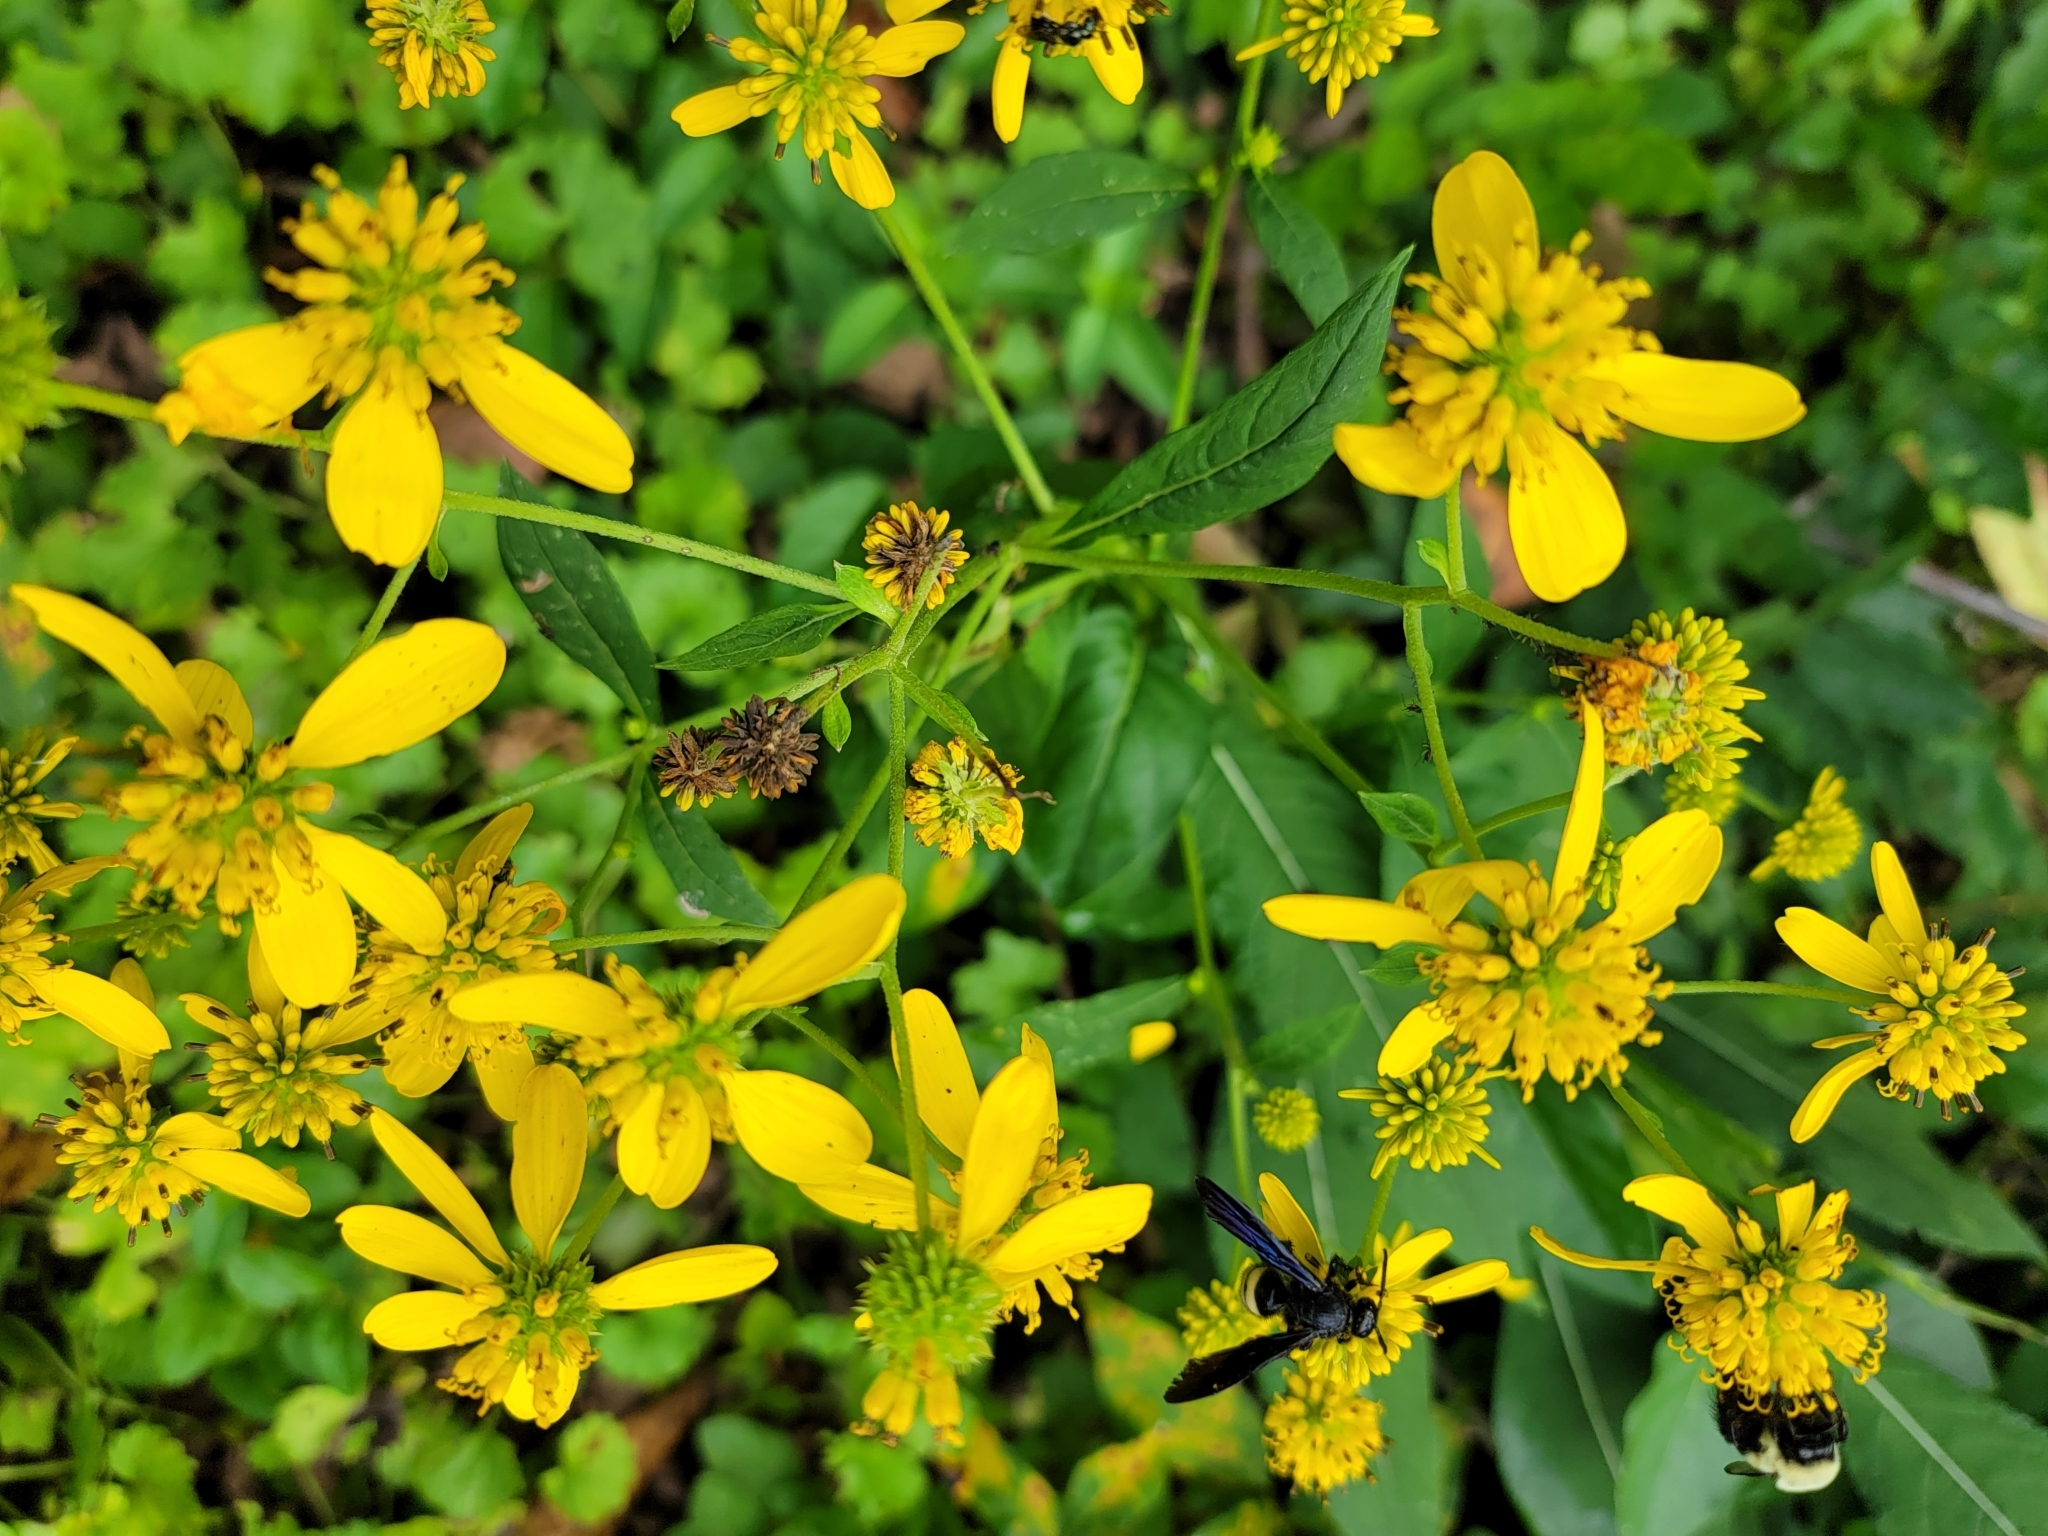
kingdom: Plantae
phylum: Tracheophyta
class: Magnoliopsida
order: Asterales
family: Asteraceae
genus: Verbesina
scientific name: Verbesina alternifolia
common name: Wingstem
